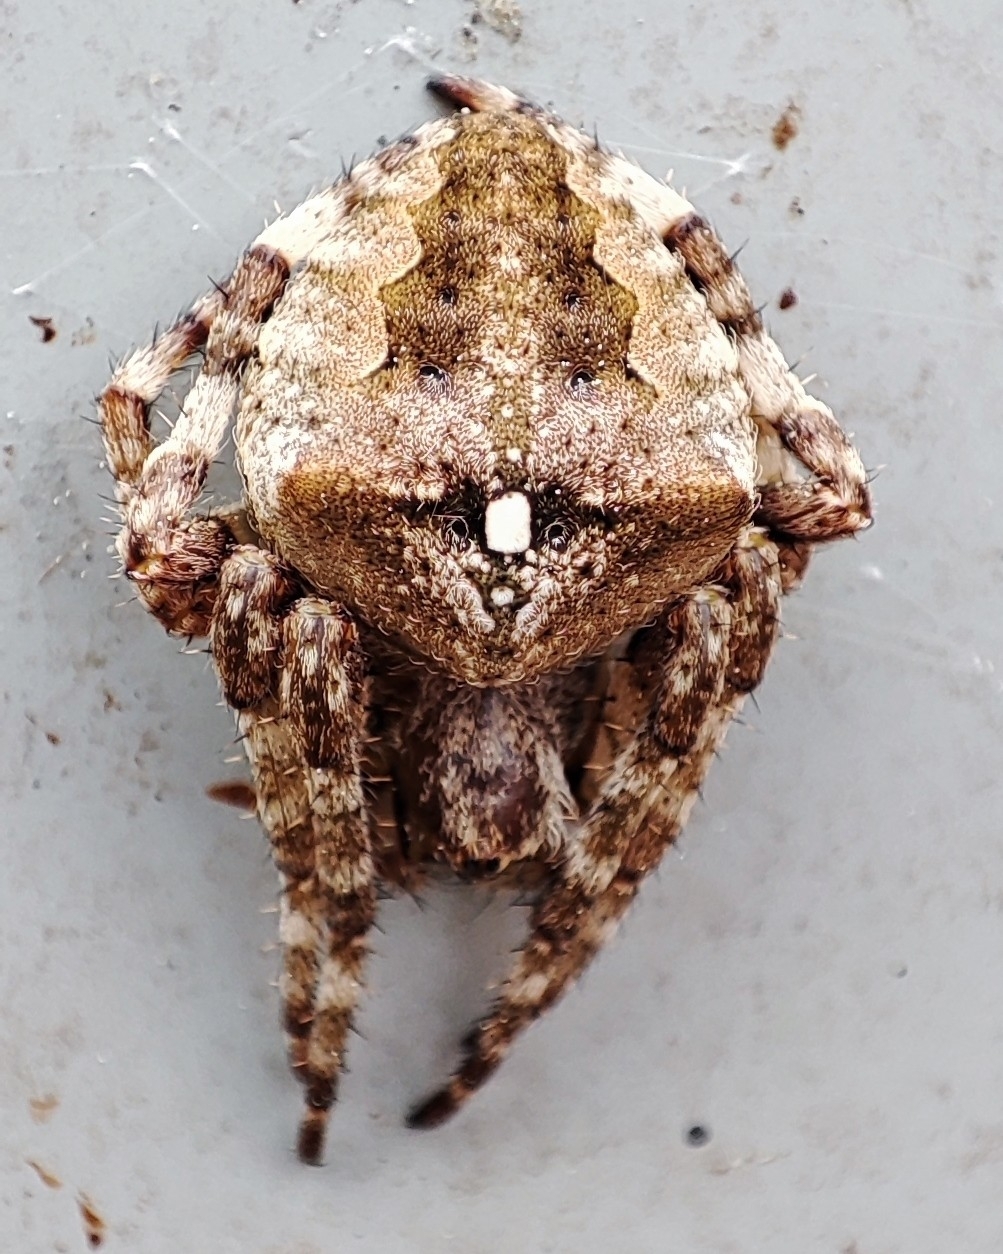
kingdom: Animalia
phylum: Arthropoda
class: Arachnida
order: Araneae
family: Araneidae
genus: Araneus
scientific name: Araneus angulatus
